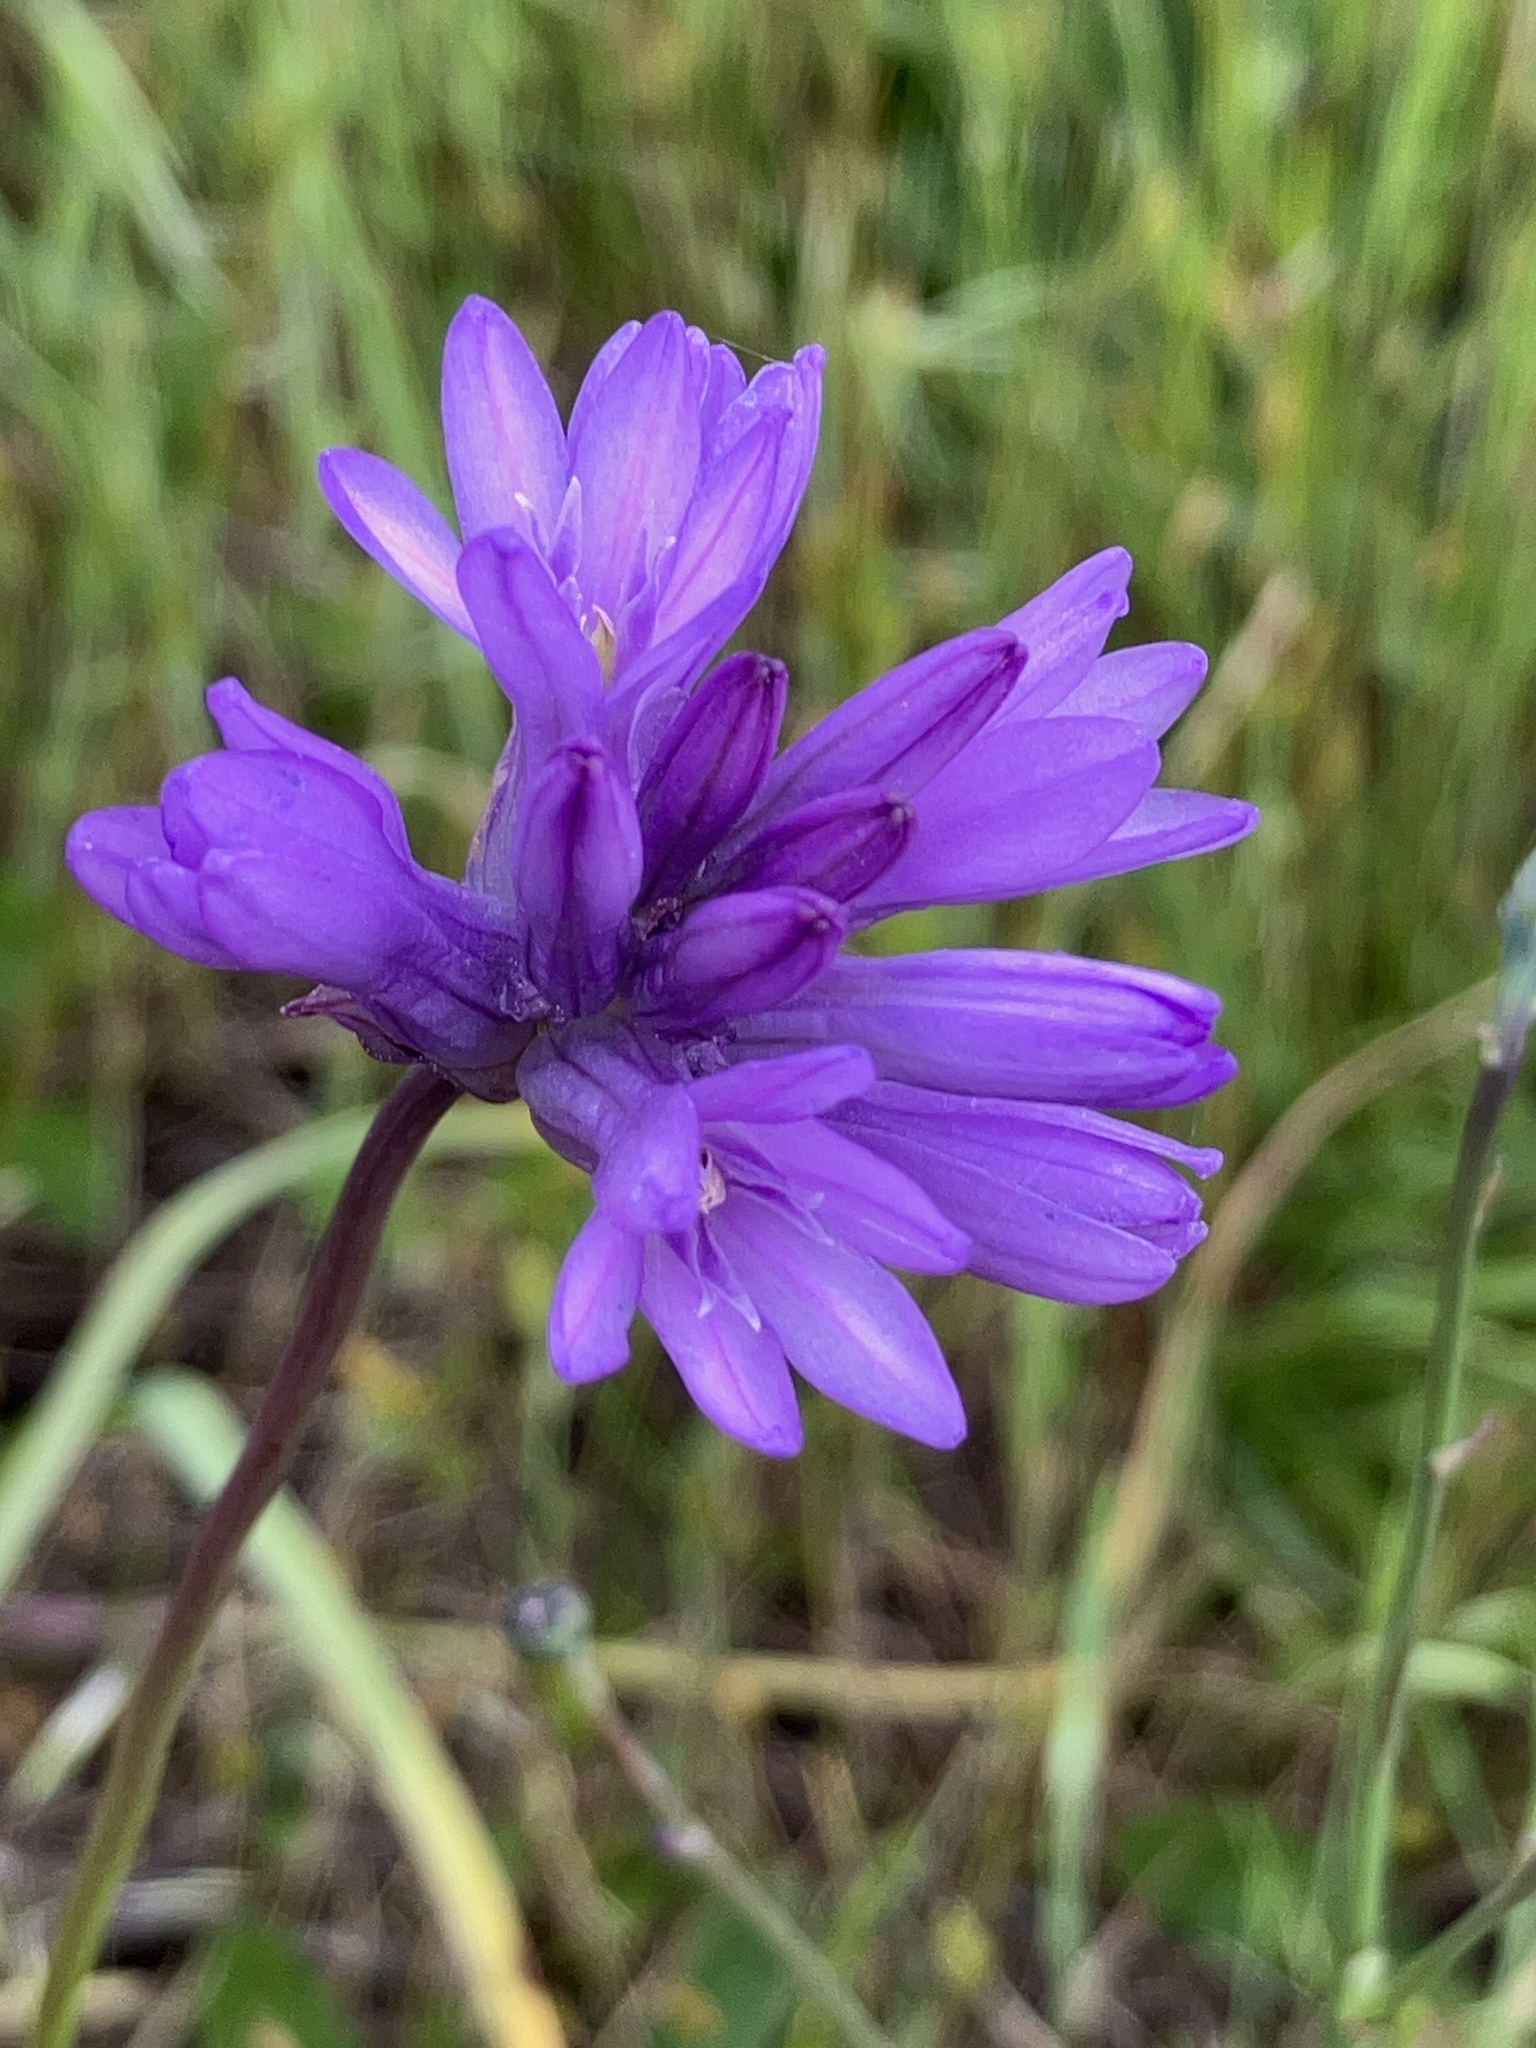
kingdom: Plantae
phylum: Tracheophyta
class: Liliopsida
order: Asparagales
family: Asparagaceae
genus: Dichelostemma
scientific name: Dichelostemma congestum
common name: Fork-tooth ookow
